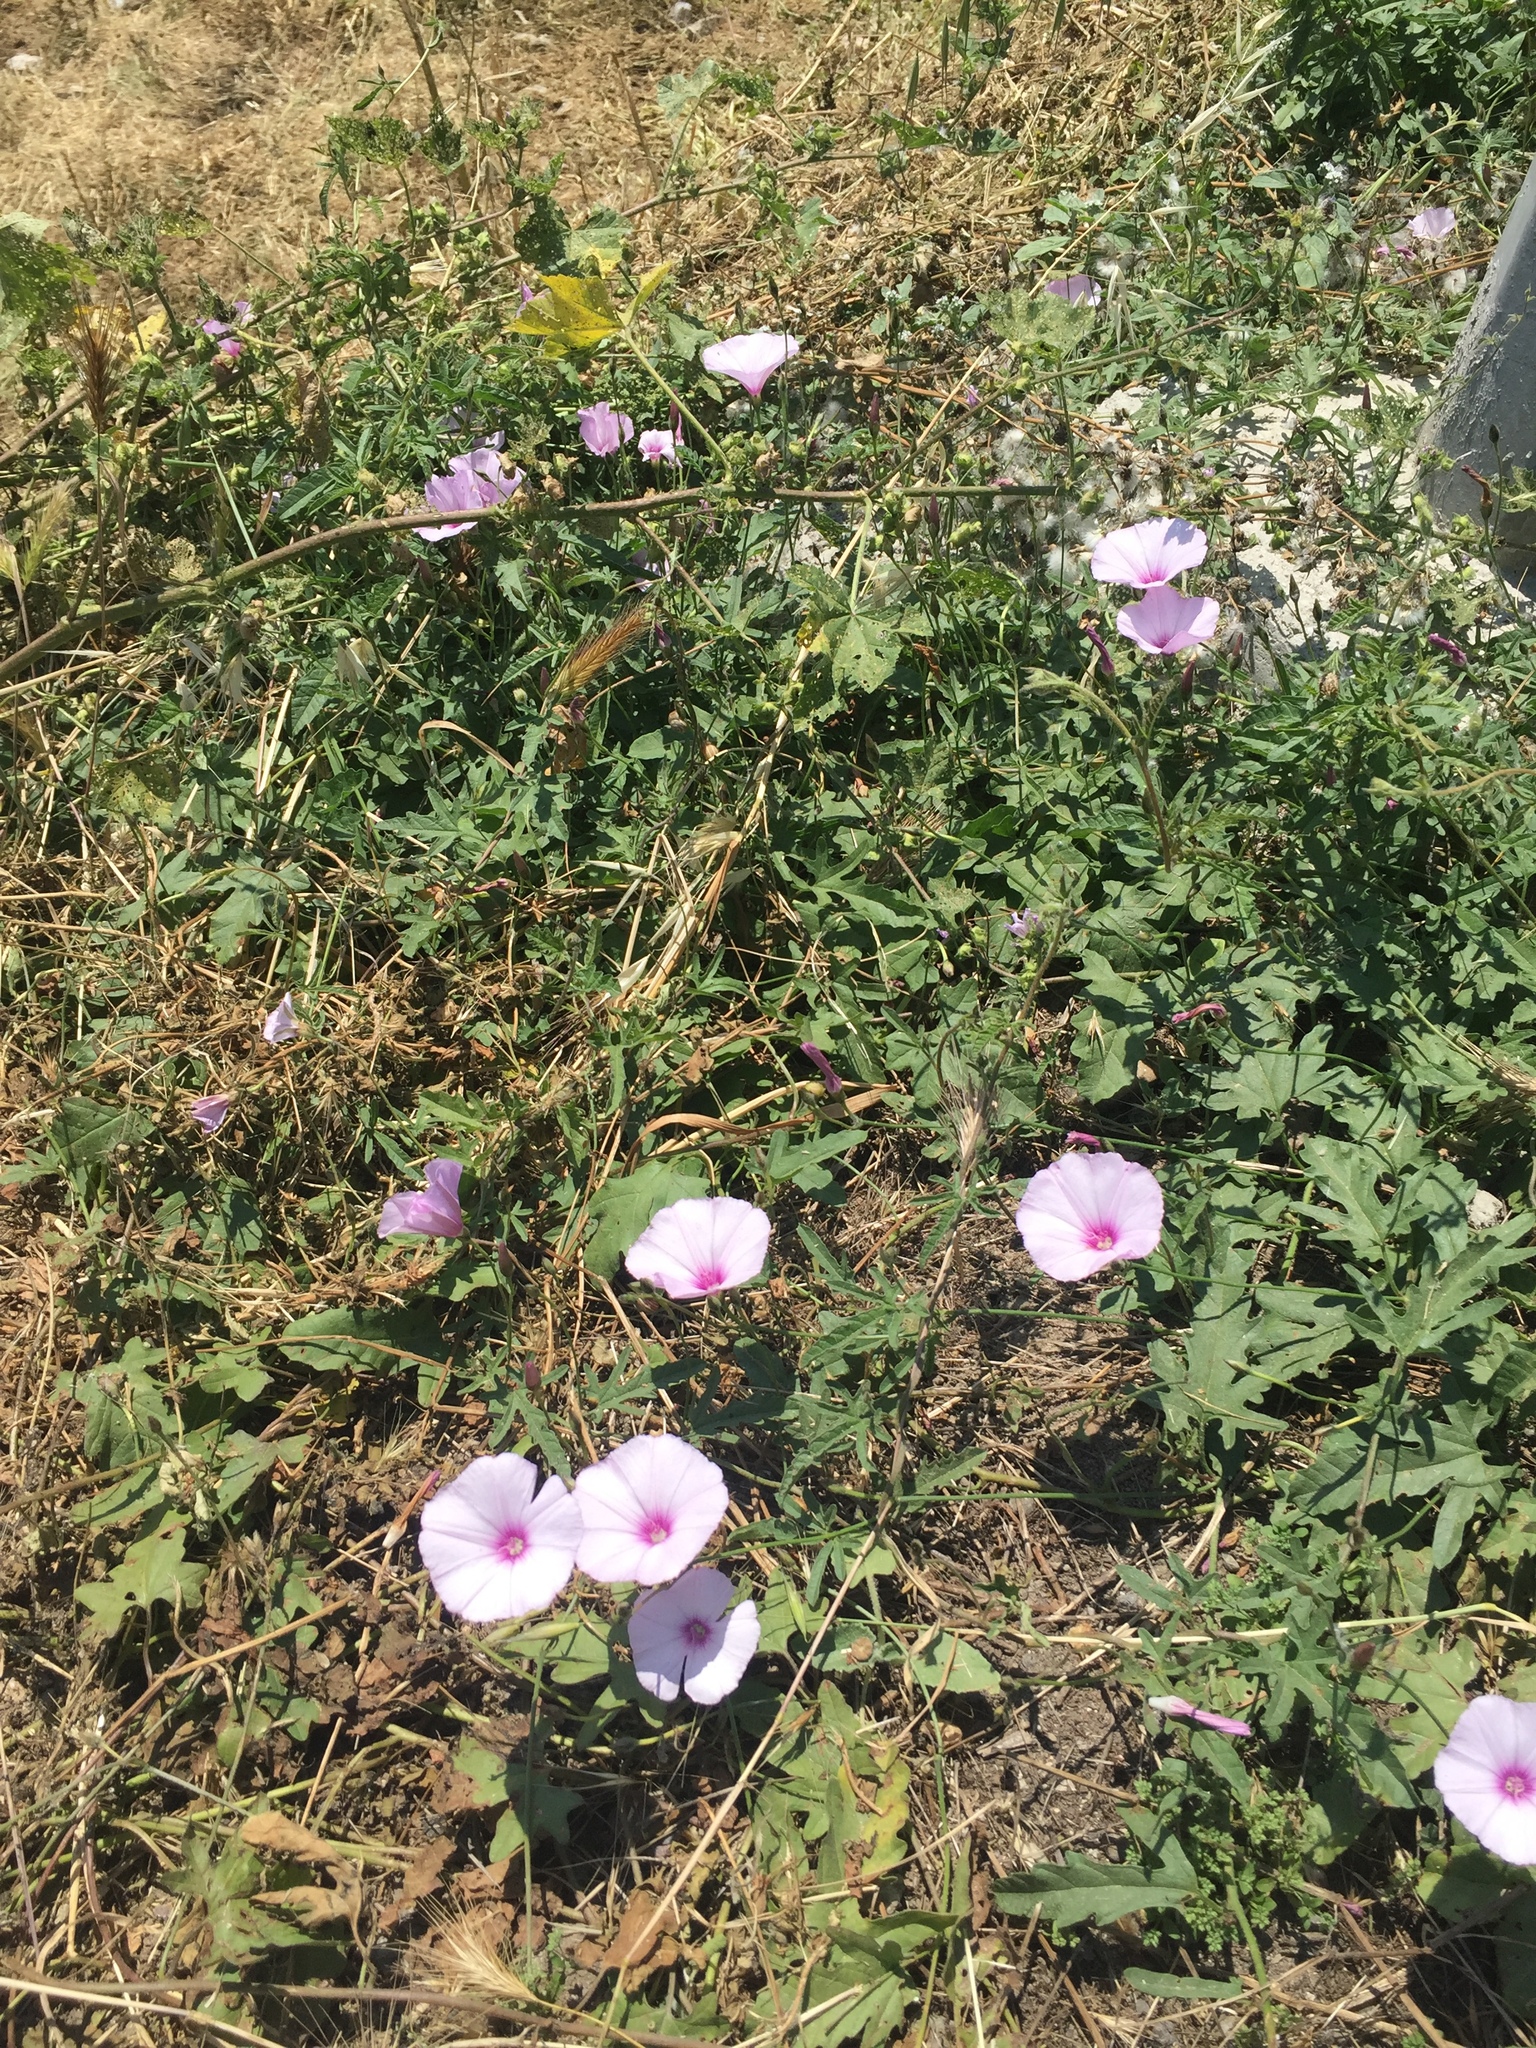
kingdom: Plantae
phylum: Tracheophyta
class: Magnoliopsida
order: Solanales
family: Convolvulaceae
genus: Convolvulus
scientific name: Convolvulus althaeoides
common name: Mallow bindweed
